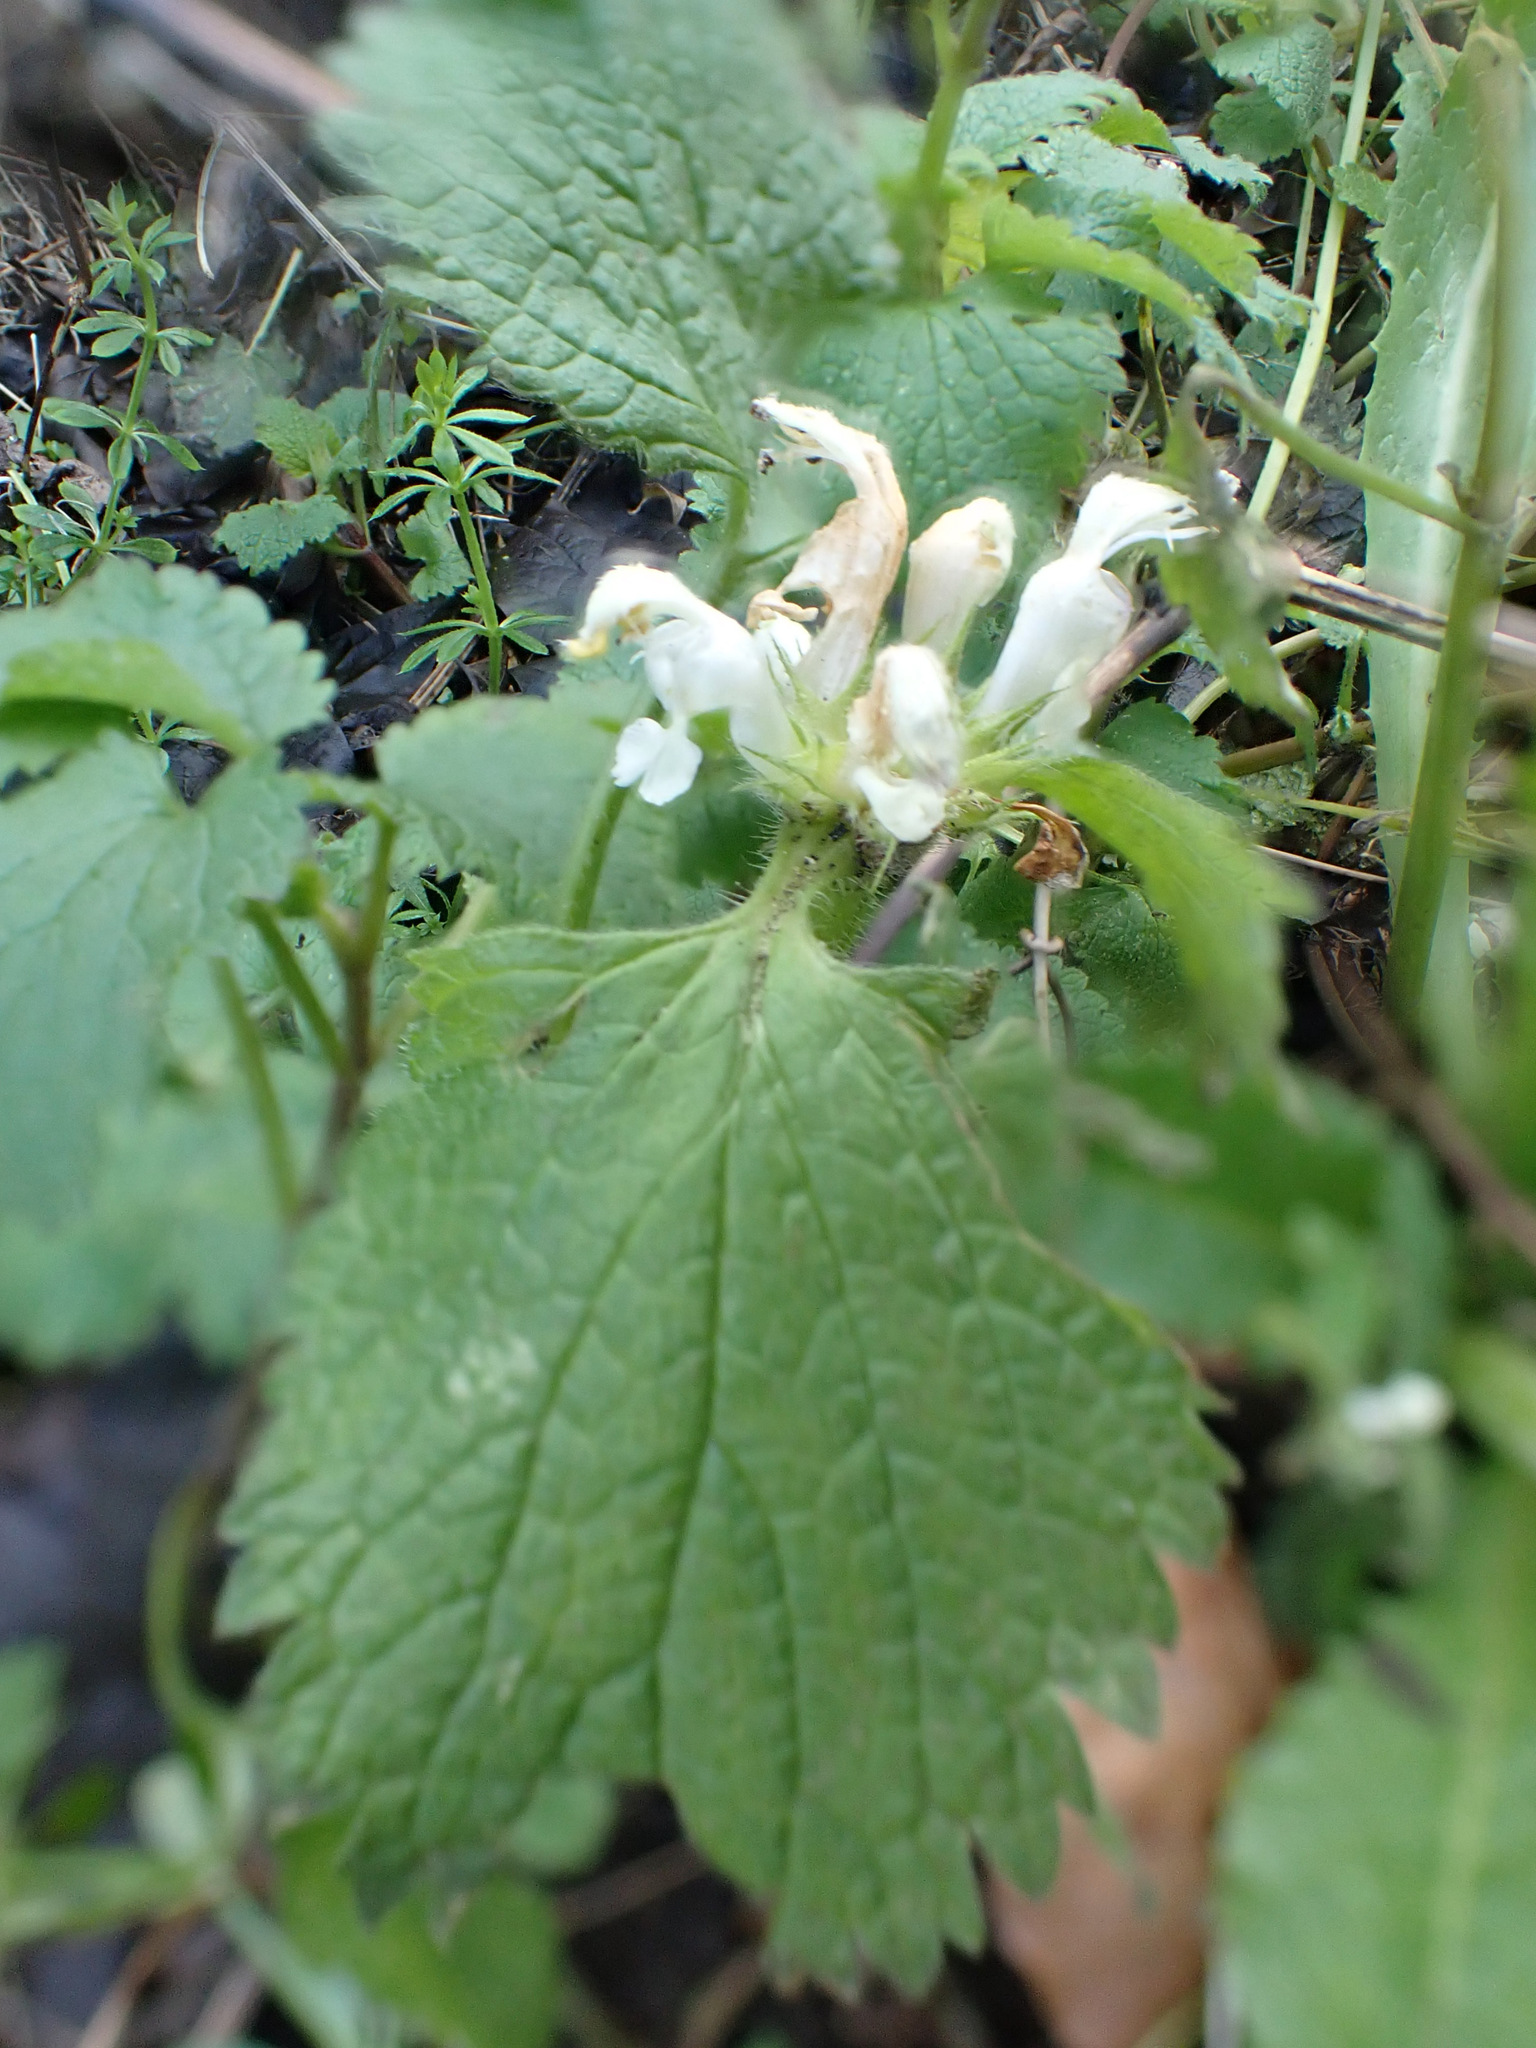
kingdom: Plantae
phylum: Tracheophyta
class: Magnoliopsida
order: Lamiales
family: Lamiaceae
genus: Lamium
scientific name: Lamium album
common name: White dead-nettle
